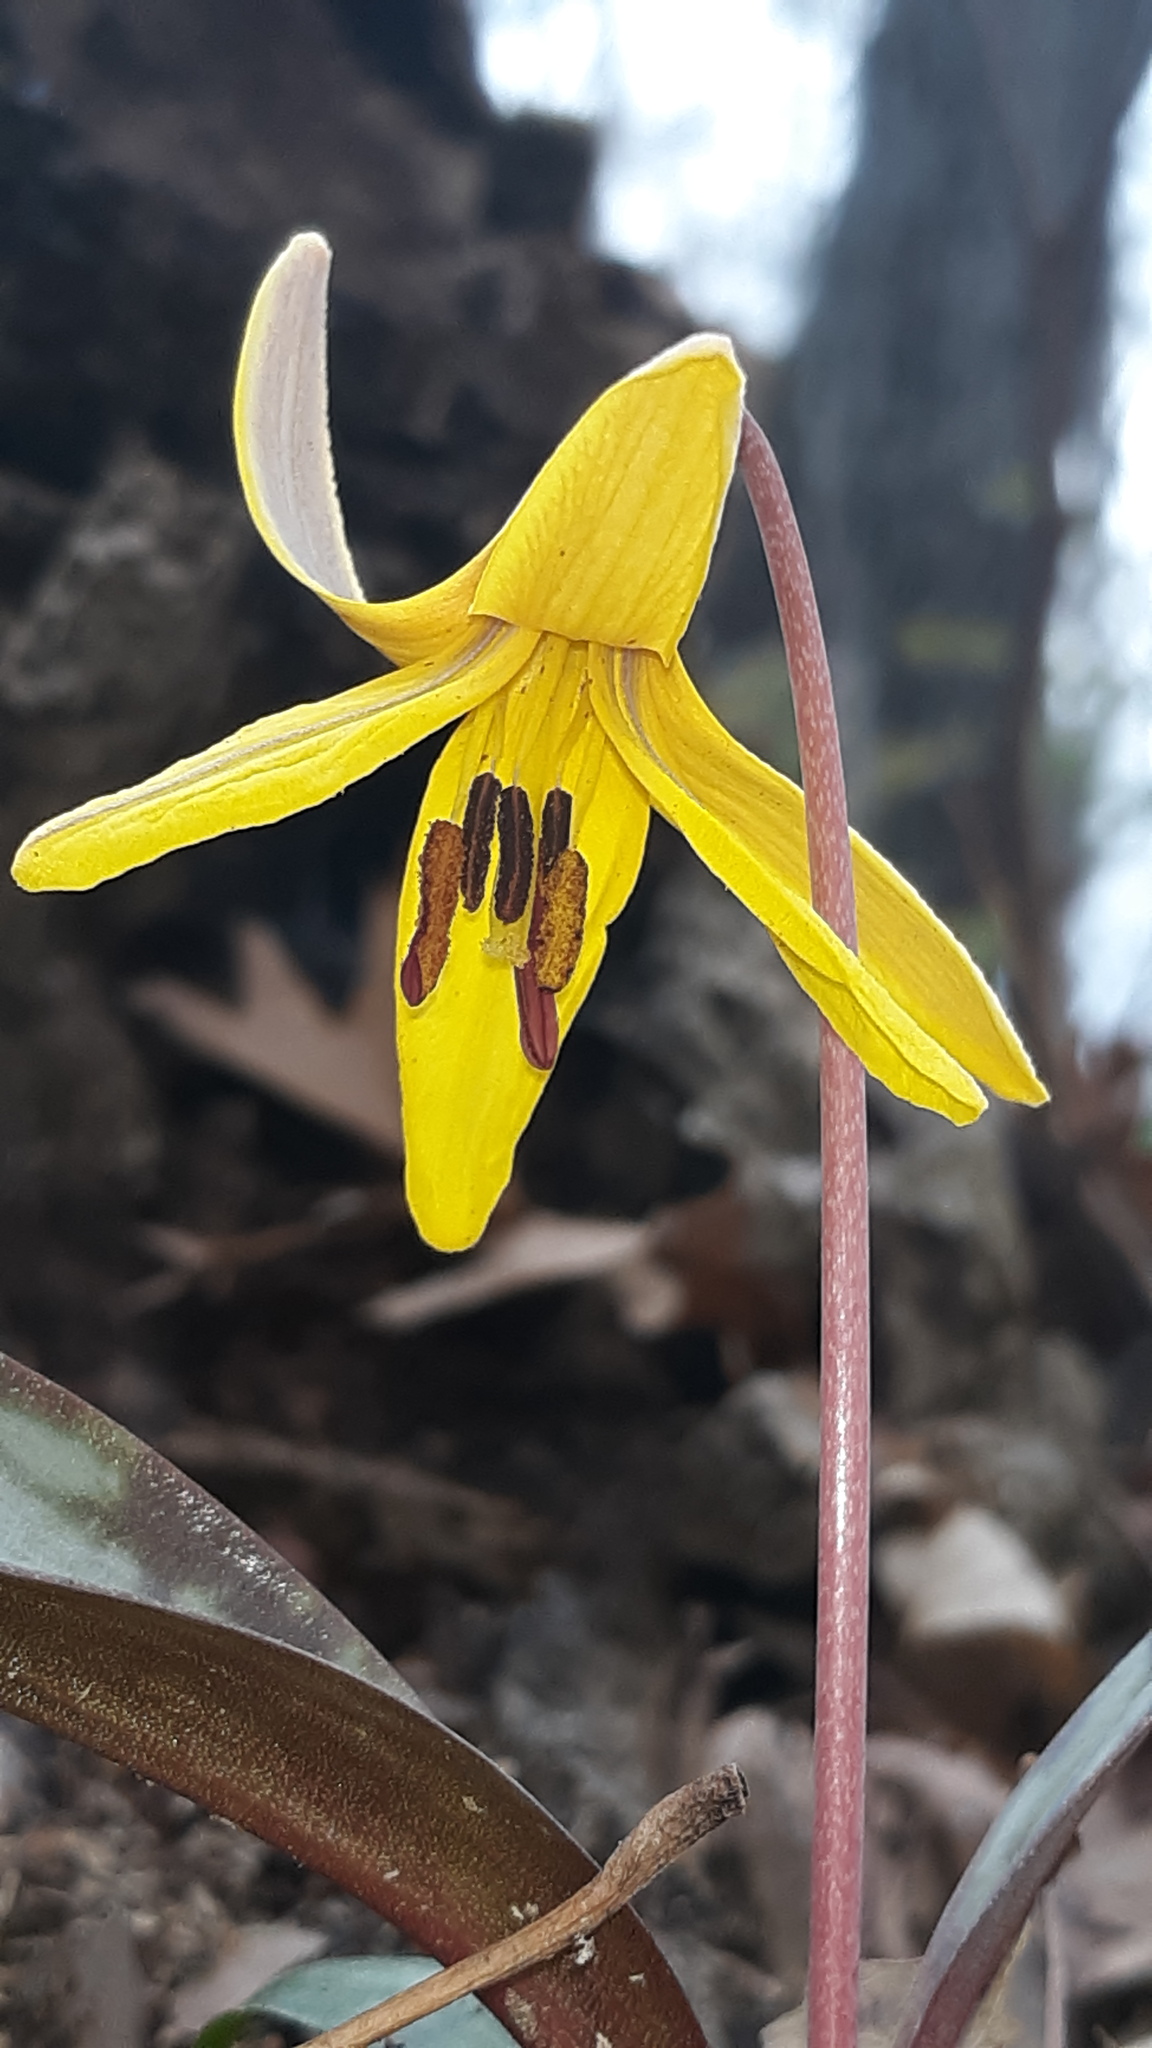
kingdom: Plantae
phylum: Tracheophyta
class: Liliopsida
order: Liliales
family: Liliaceae
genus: Erythronium
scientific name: Erythronium americanum
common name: Yellow adder's-tongue
